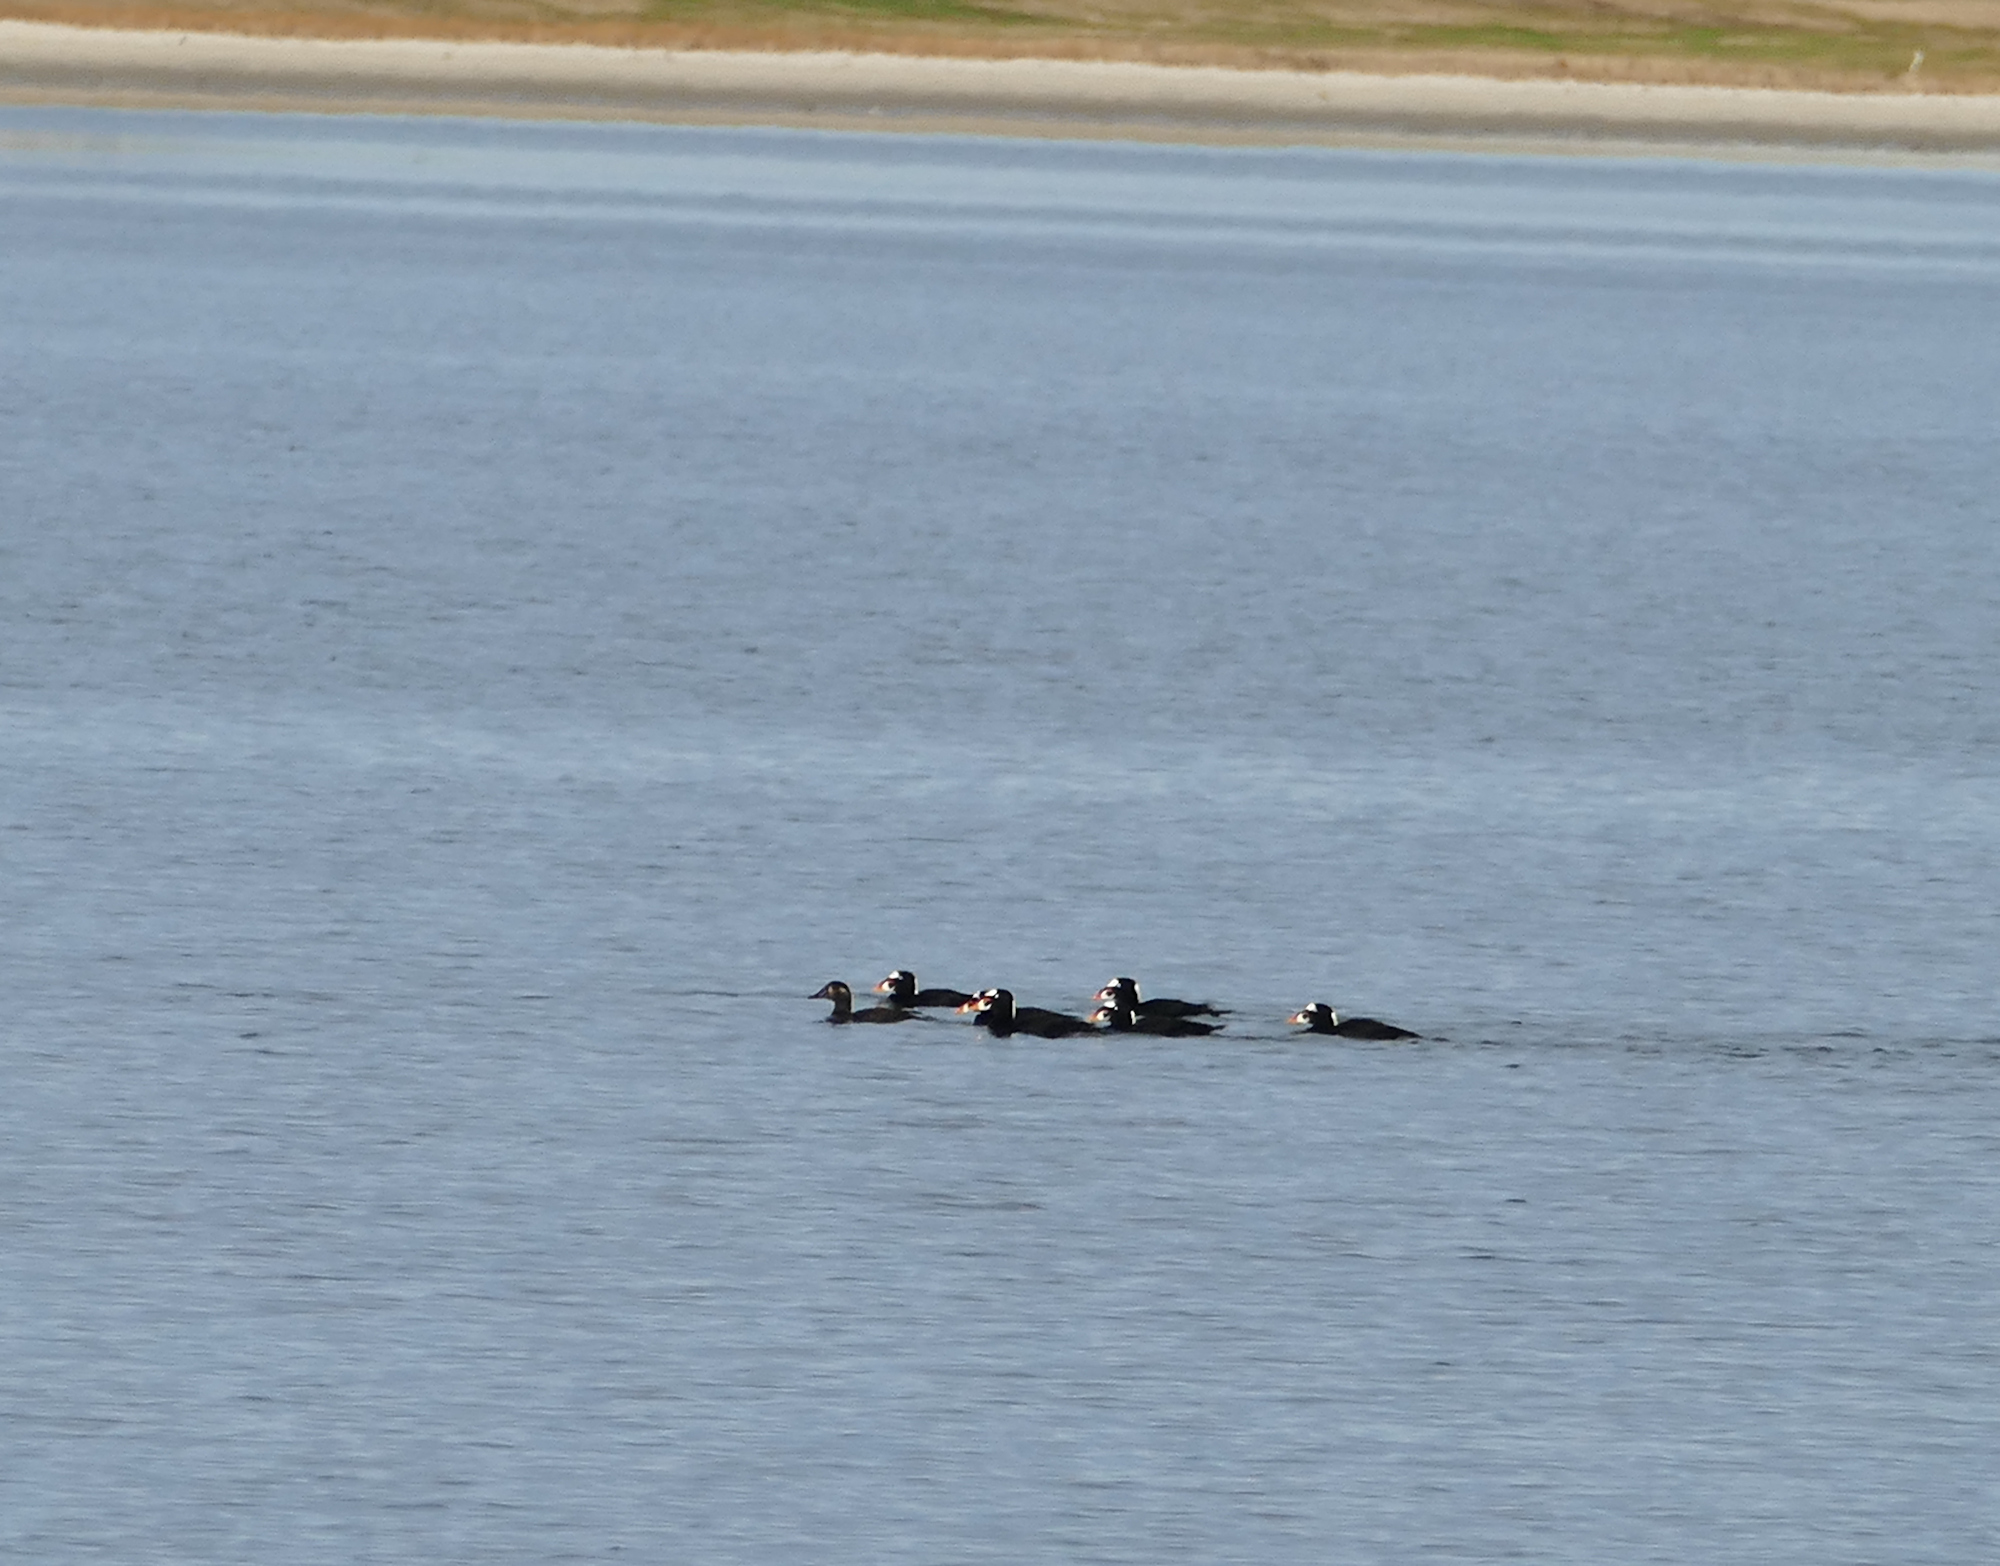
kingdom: Animalia
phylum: Chordata
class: Aves
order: Anseriformes
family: Anatidae
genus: Melanitta
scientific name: Melanitta perspicillata
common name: Surf scoter
